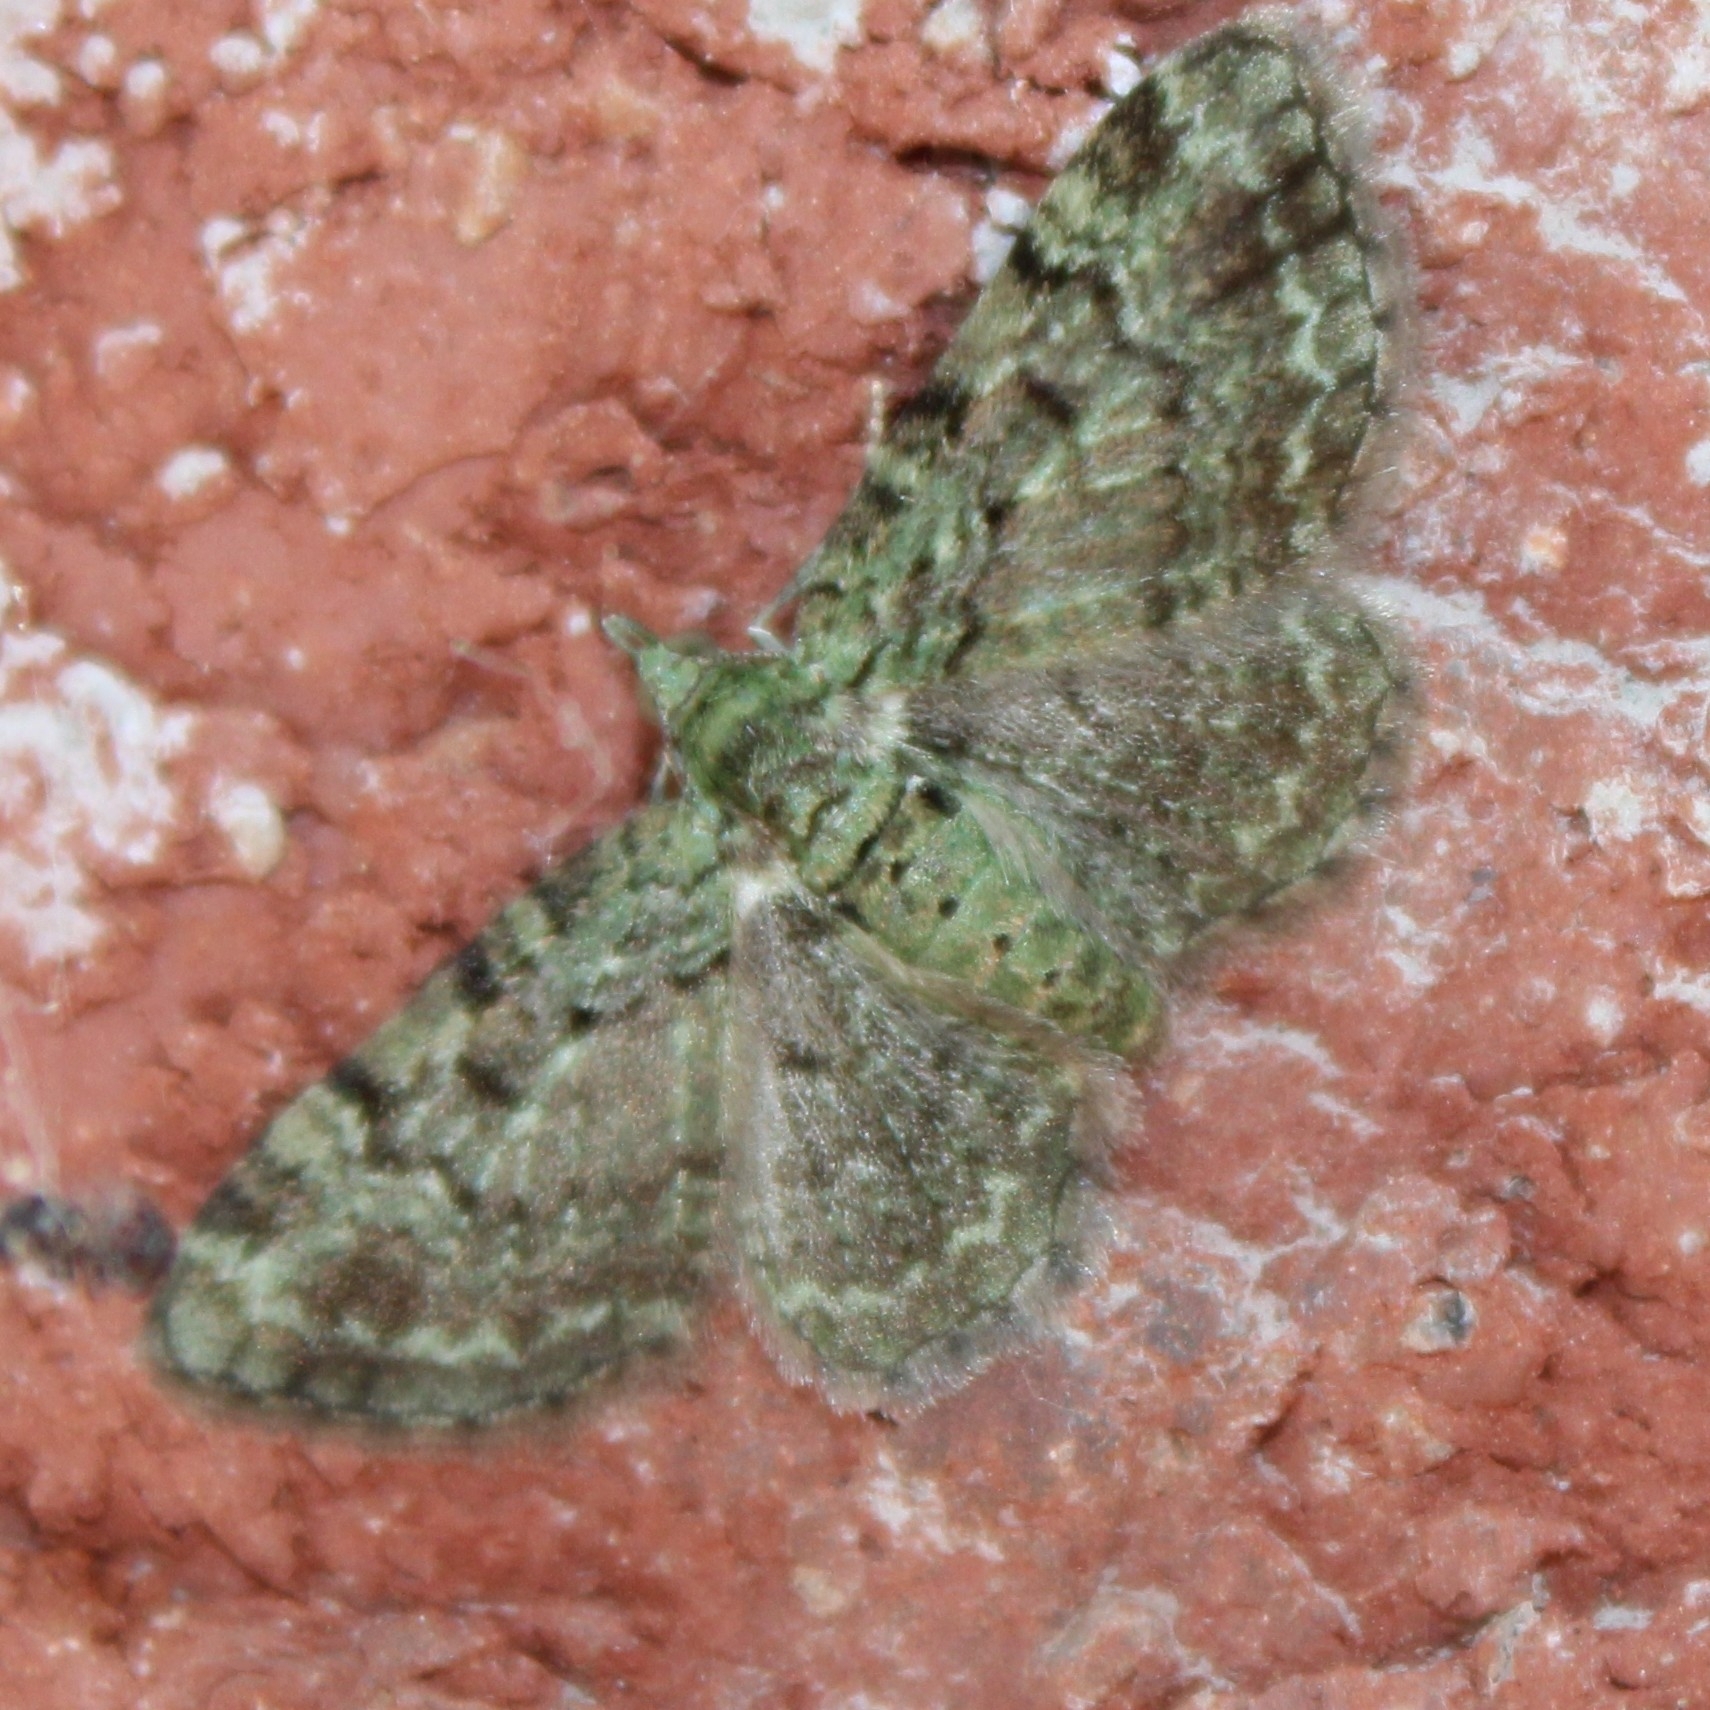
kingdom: Animalia
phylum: Arthropoda
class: Insecta
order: Lepidoptera
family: Geometridae
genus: Pasiphila
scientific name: Pasiphila rectangulata
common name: Green pug
